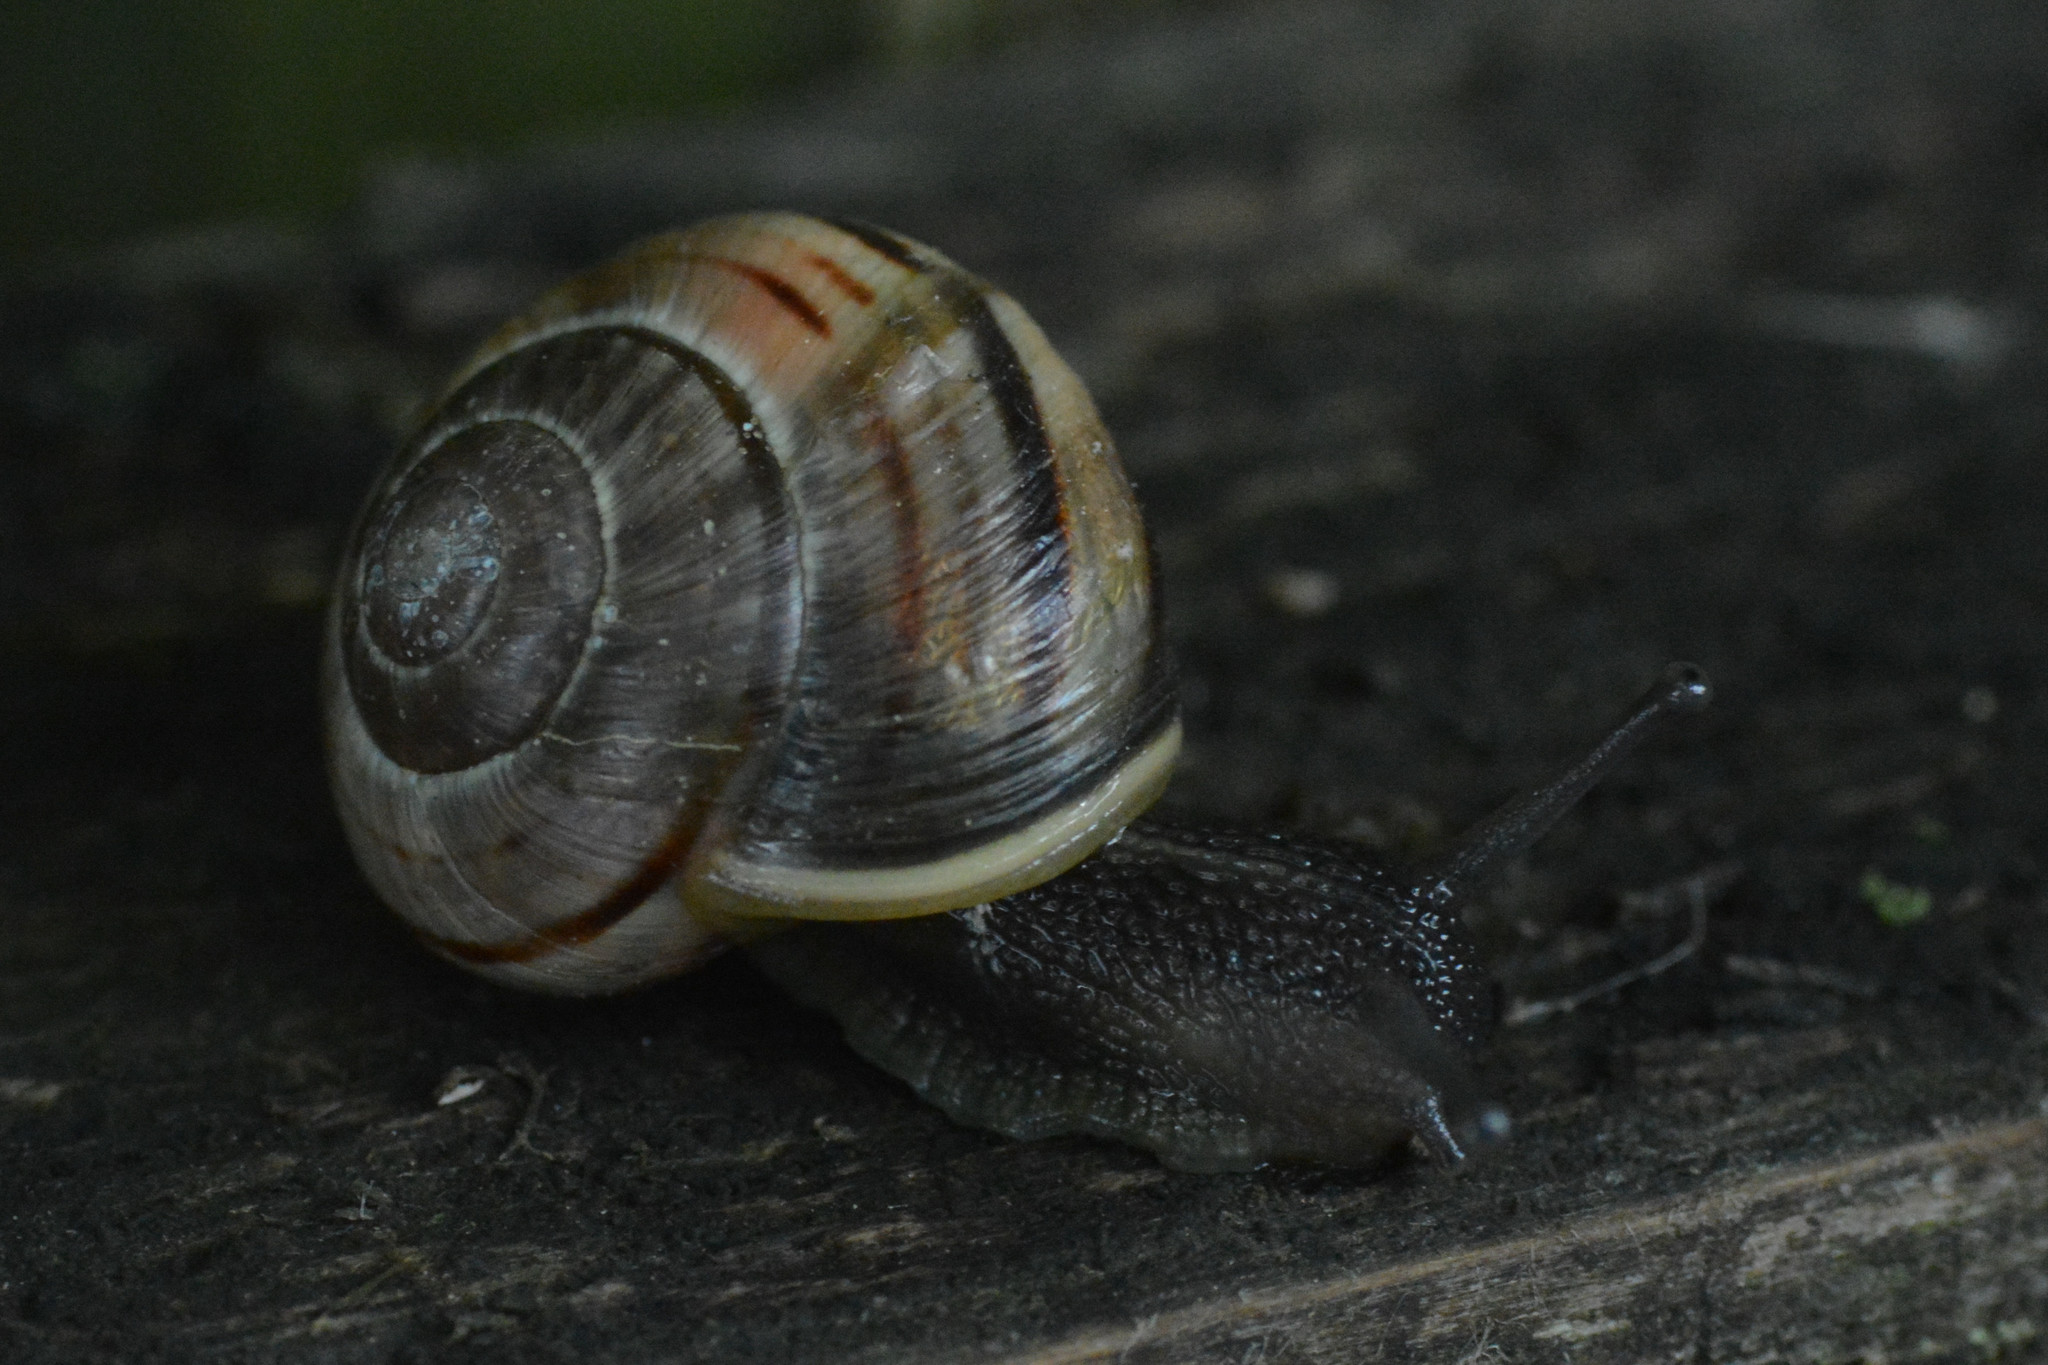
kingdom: Animalia
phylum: Mollusca
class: Gastropoda
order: Stylommatophora
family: Helicidae
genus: Cepaea
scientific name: Cepaea
